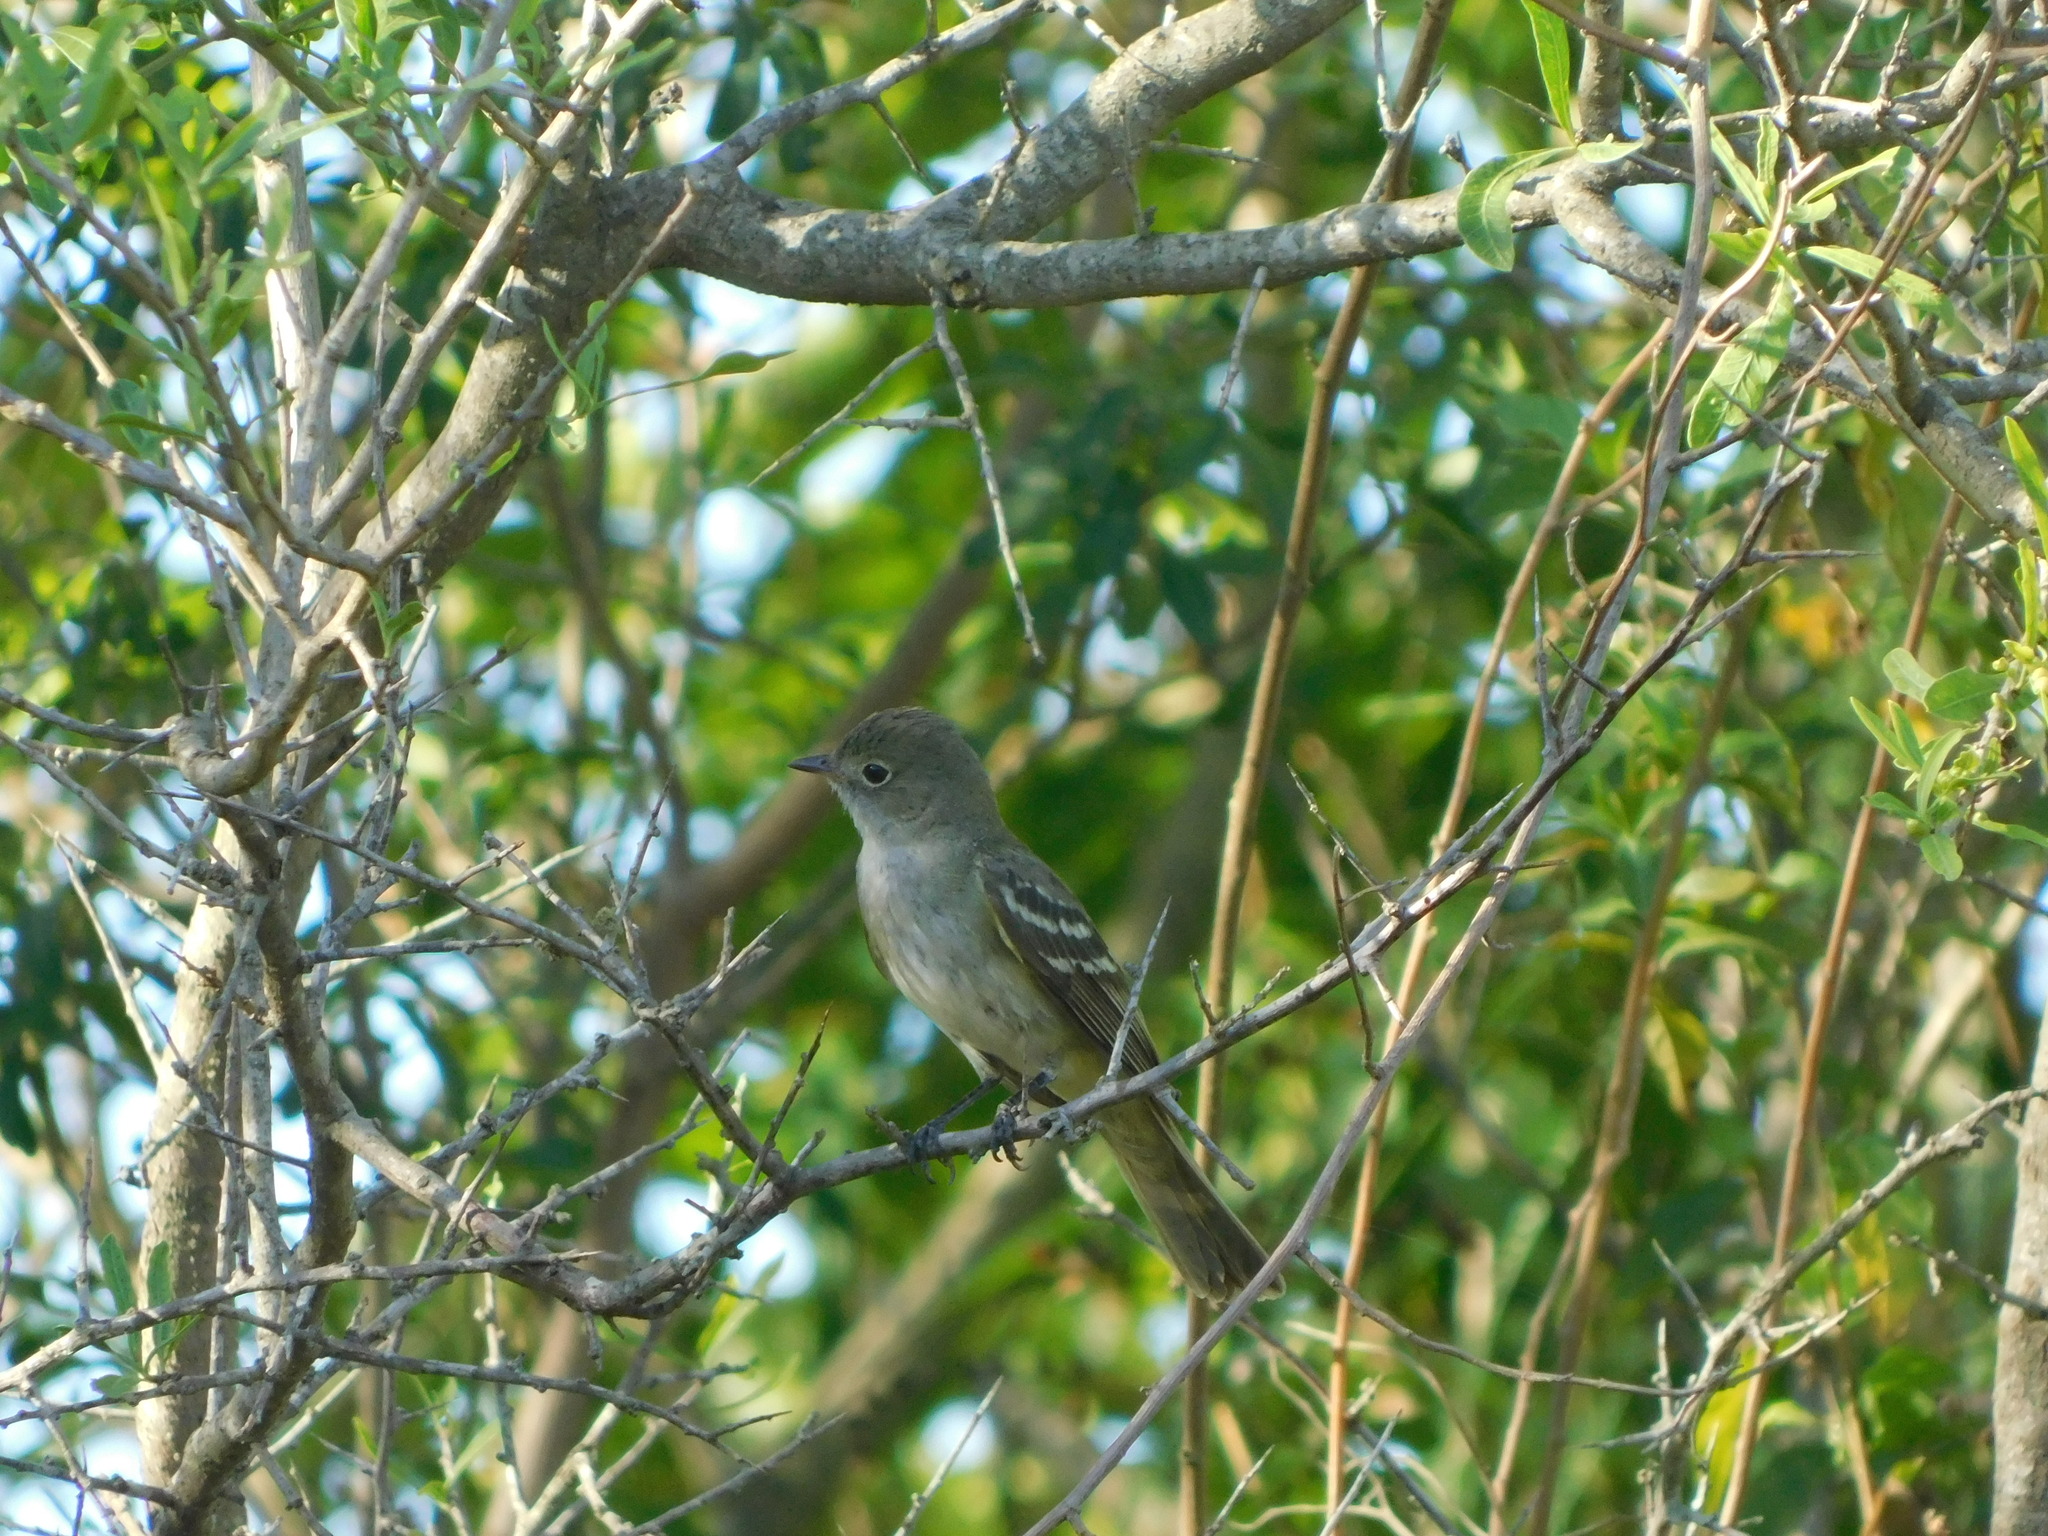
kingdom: Animalia
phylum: Chordata
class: Aves
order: Passeriformes
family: Tyrannidae
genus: Elaenia
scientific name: Elaenia parvirostris
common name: Small-billed elaenia
